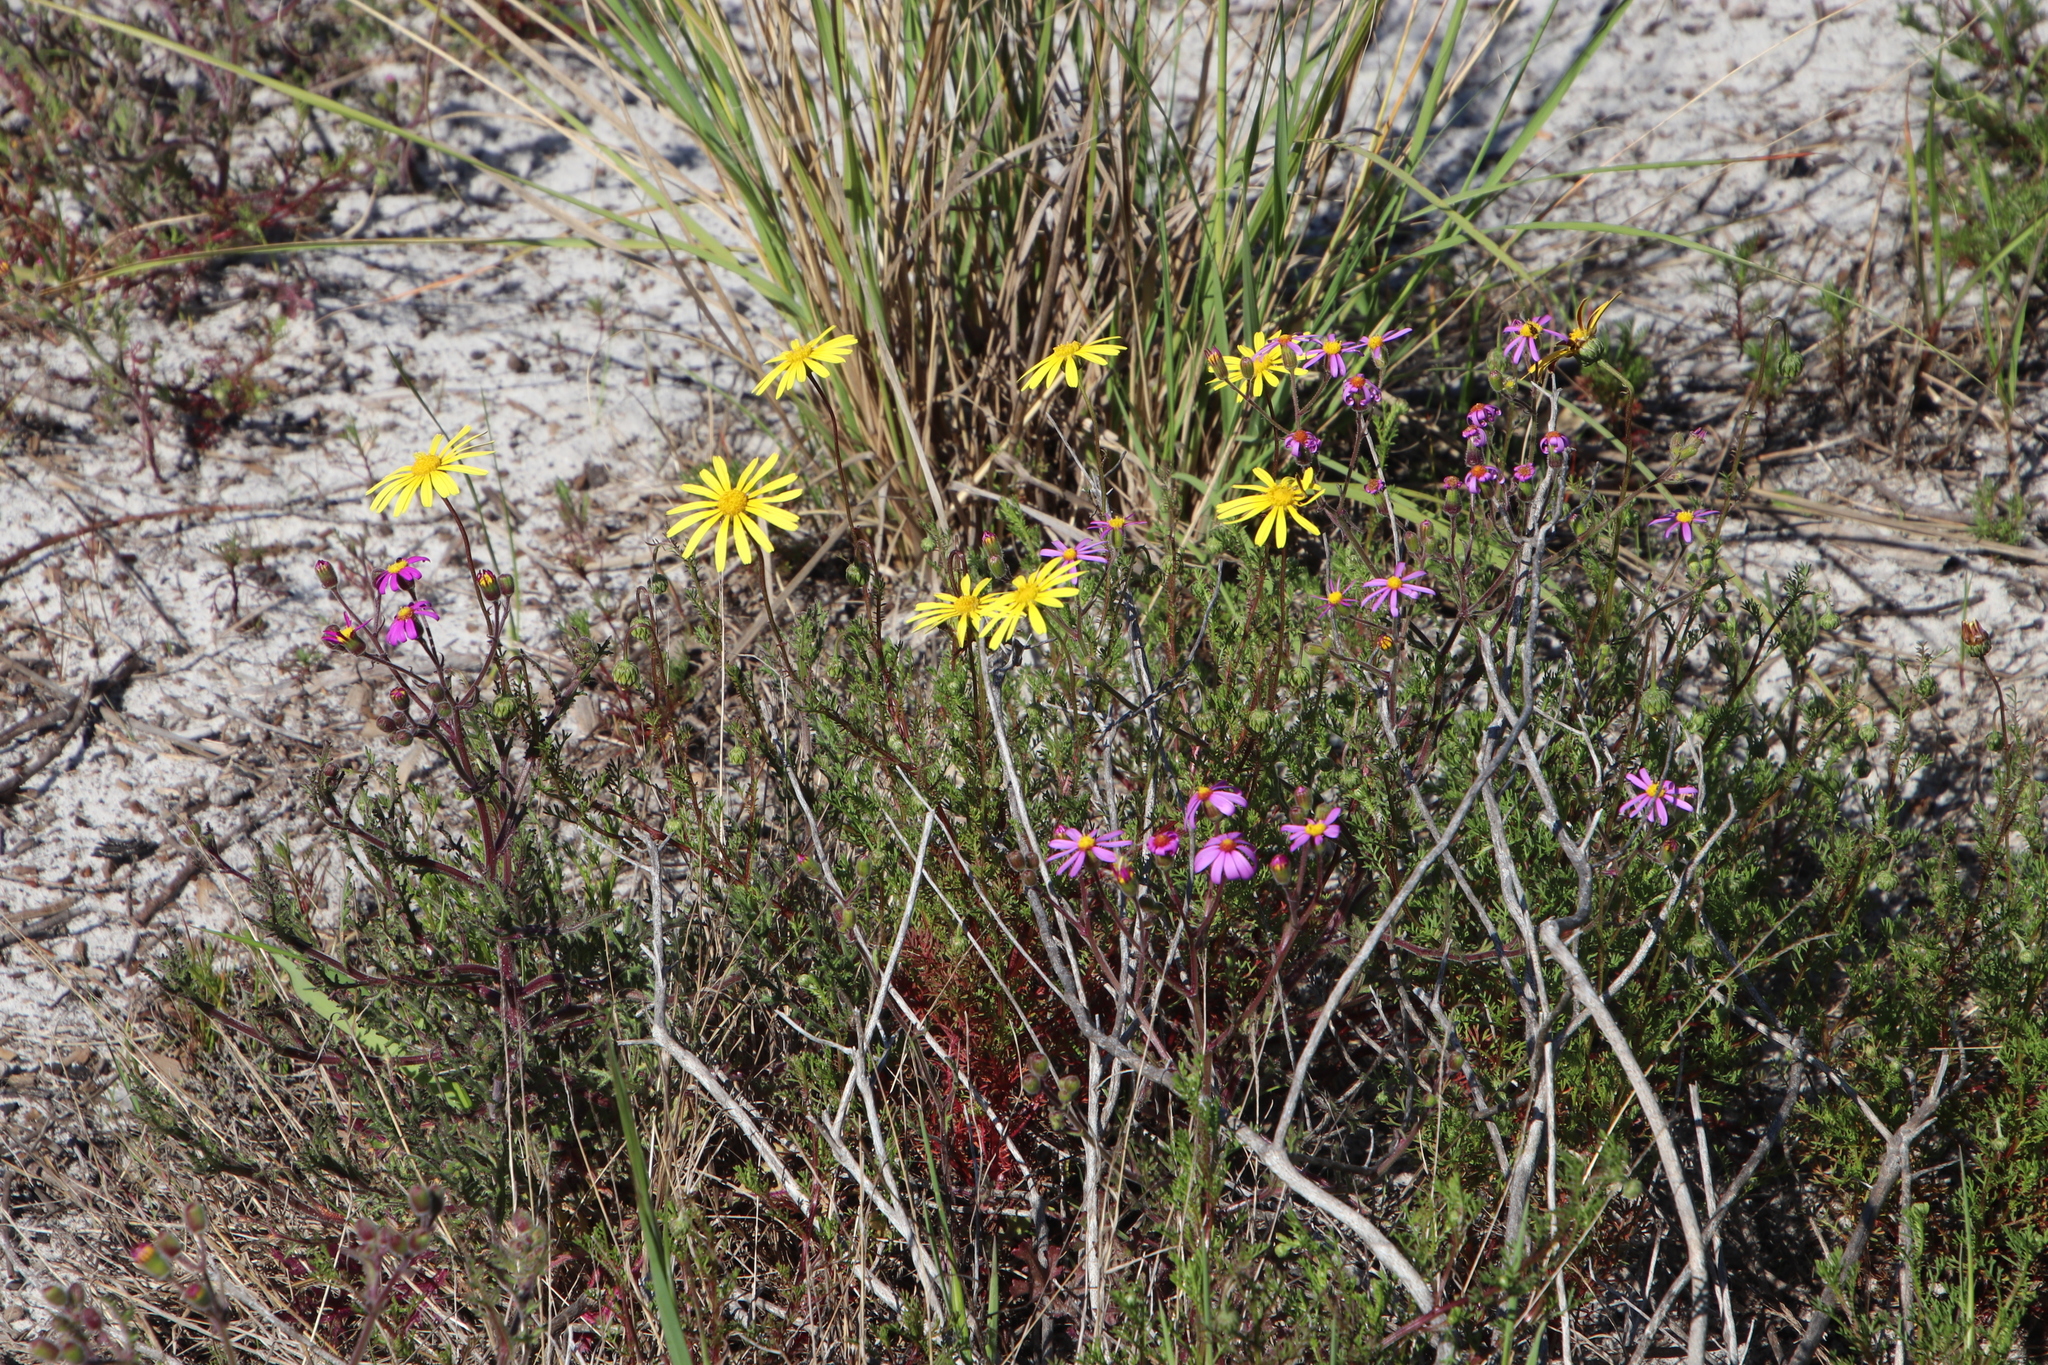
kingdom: Plantae
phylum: Tracheophyta
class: Magnoliopsida
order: Asterales
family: Asteraceae
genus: Ursinia
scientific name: Ursinia paleacea
